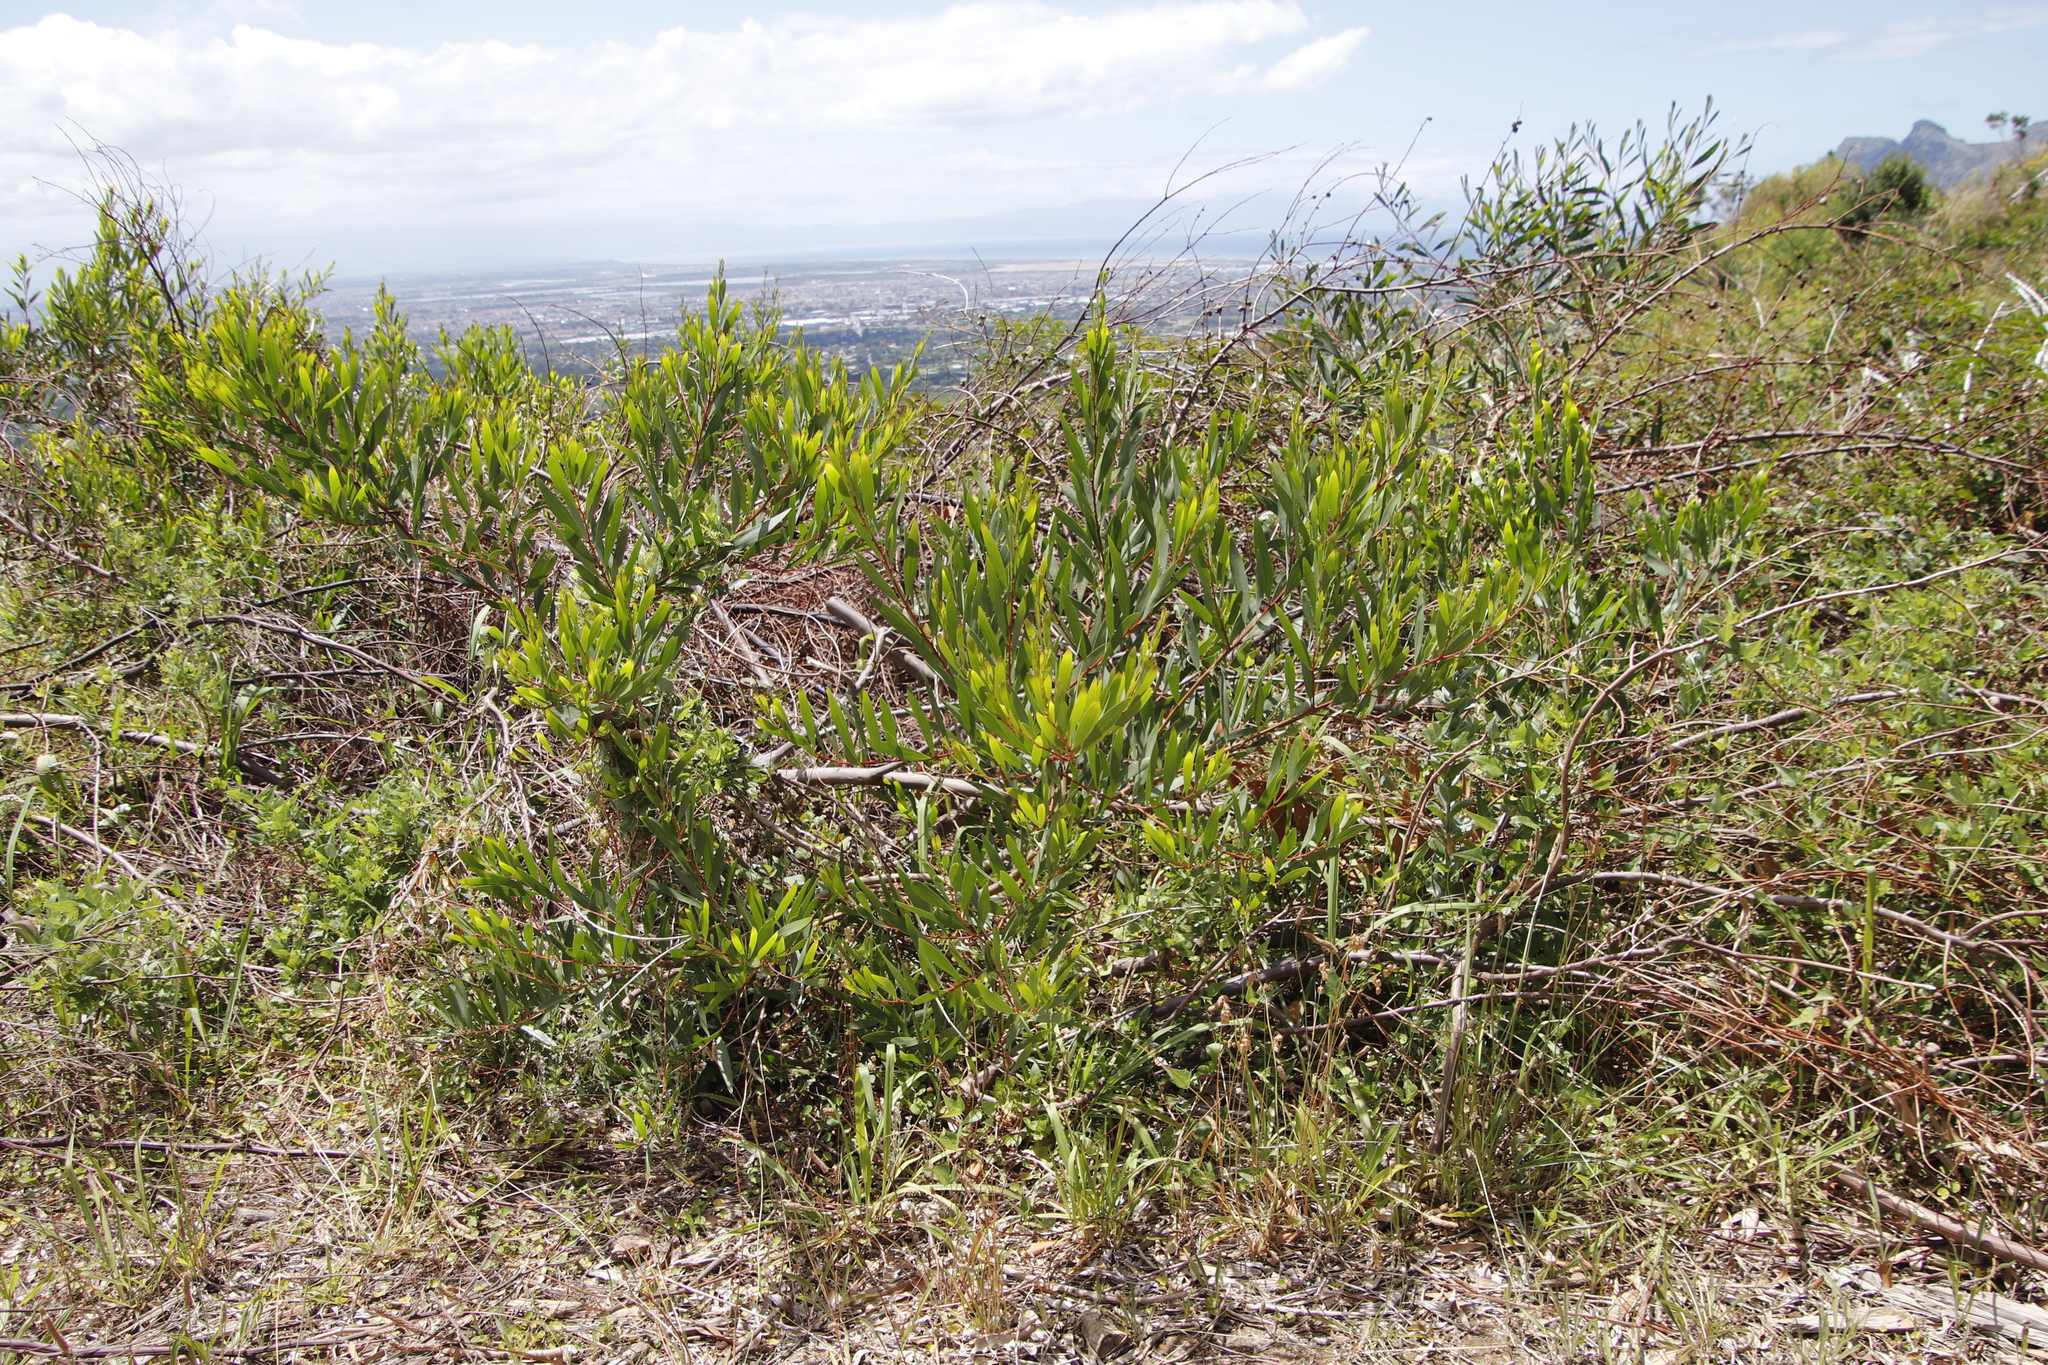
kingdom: Plantae
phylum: Tracheophyta
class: Magnoliopsida
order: Fabales
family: Fabaceae
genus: Acacia
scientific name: Acacia longifolia
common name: Sydney golden wattle
